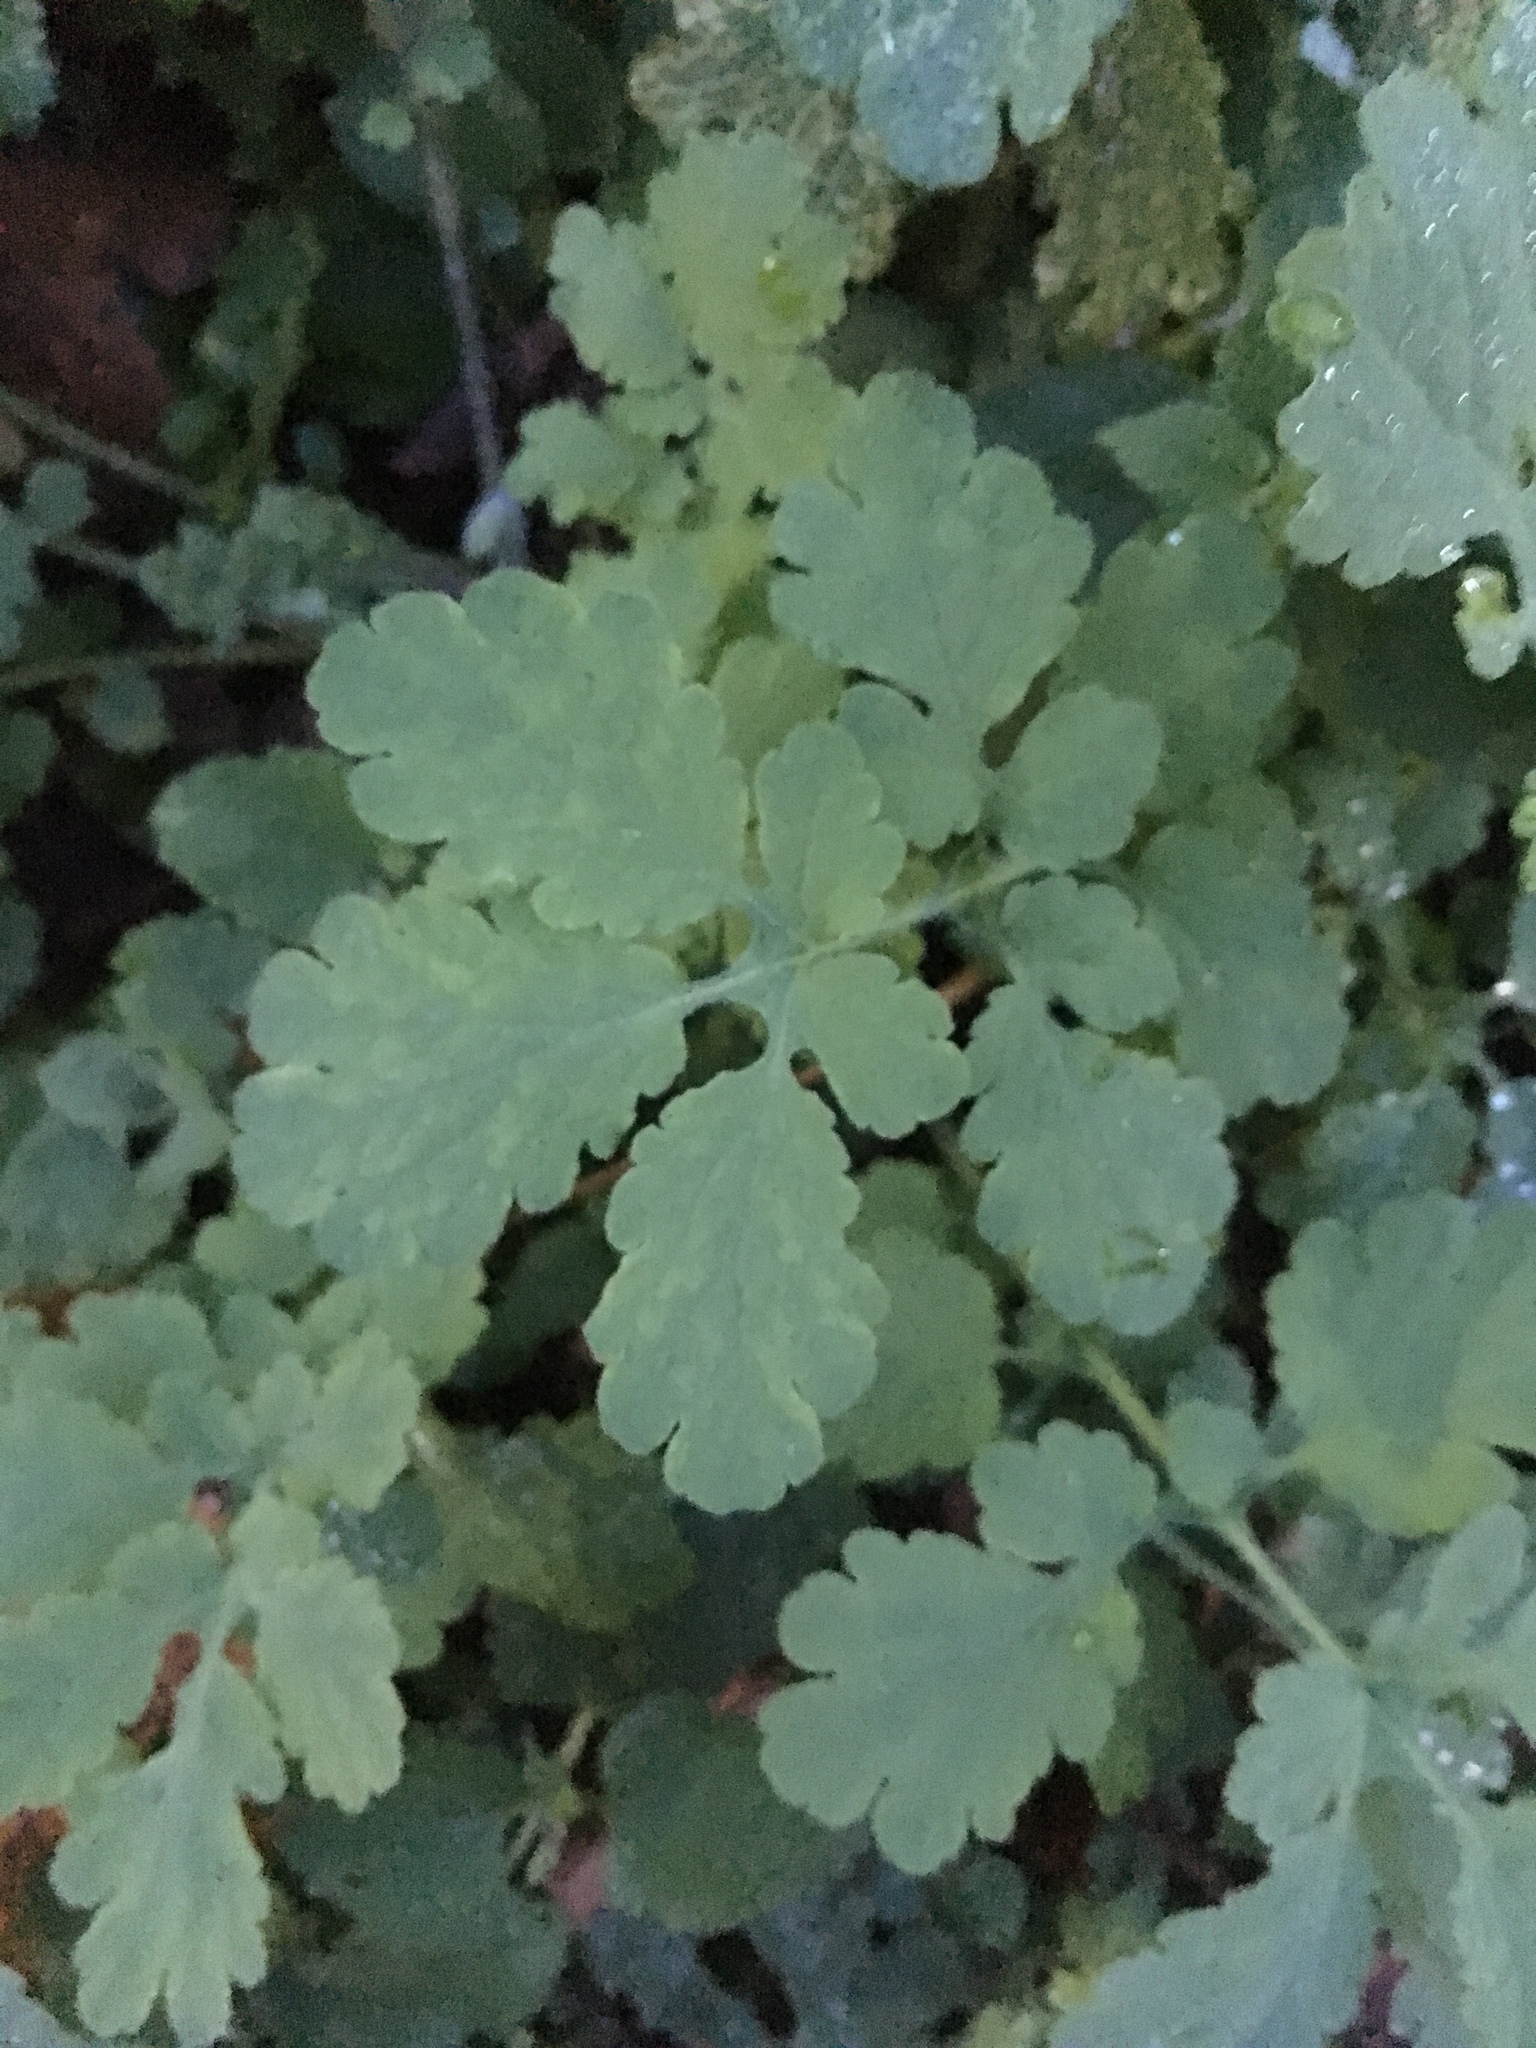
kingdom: Plantae
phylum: Tracheophyta
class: Magnoliopsida
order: Ranunculales
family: Papaveraceae
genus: Chelidonium
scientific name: Chelidonium majus
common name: Greater celandine
